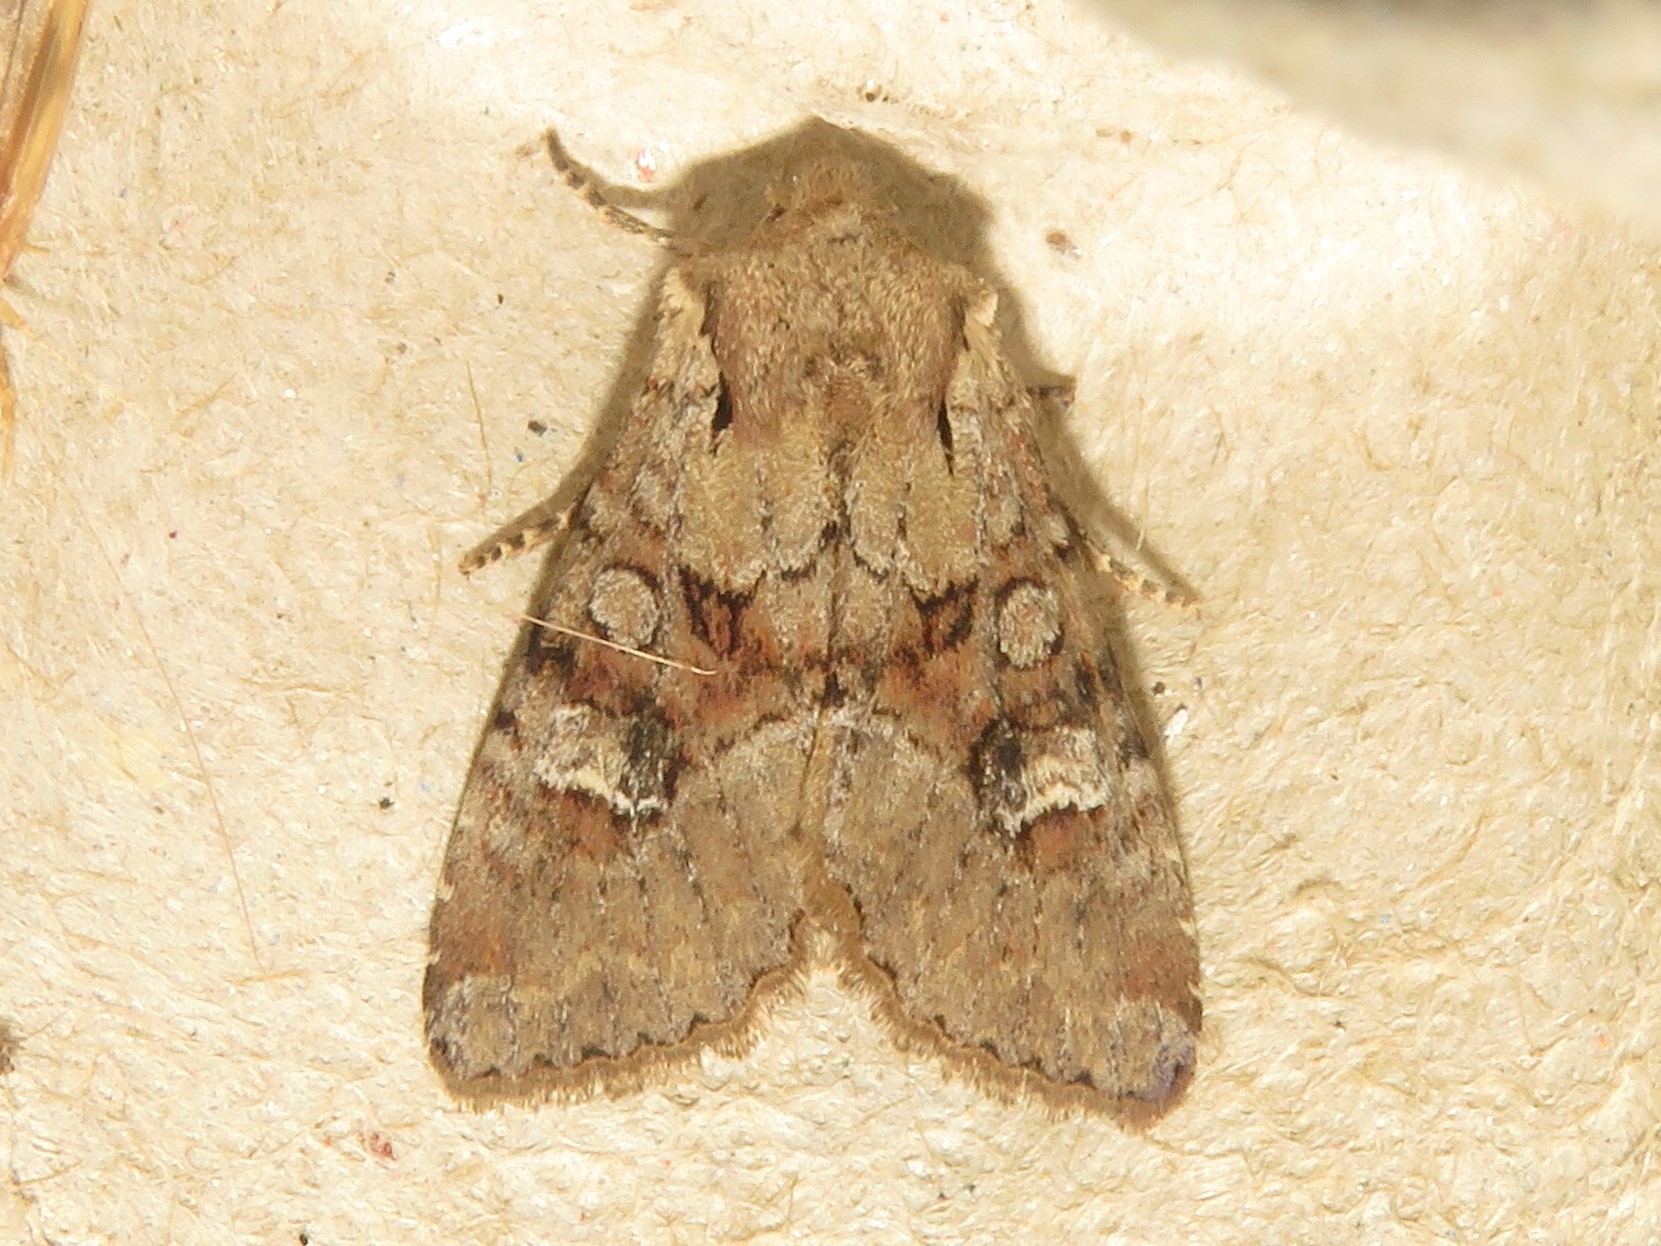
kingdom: Animalia
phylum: Arthropoda
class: Insecta
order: Lepidoptera
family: Noctuidae
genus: Apamea
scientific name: Apamea sordens
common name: Rustic shoulder-knot
